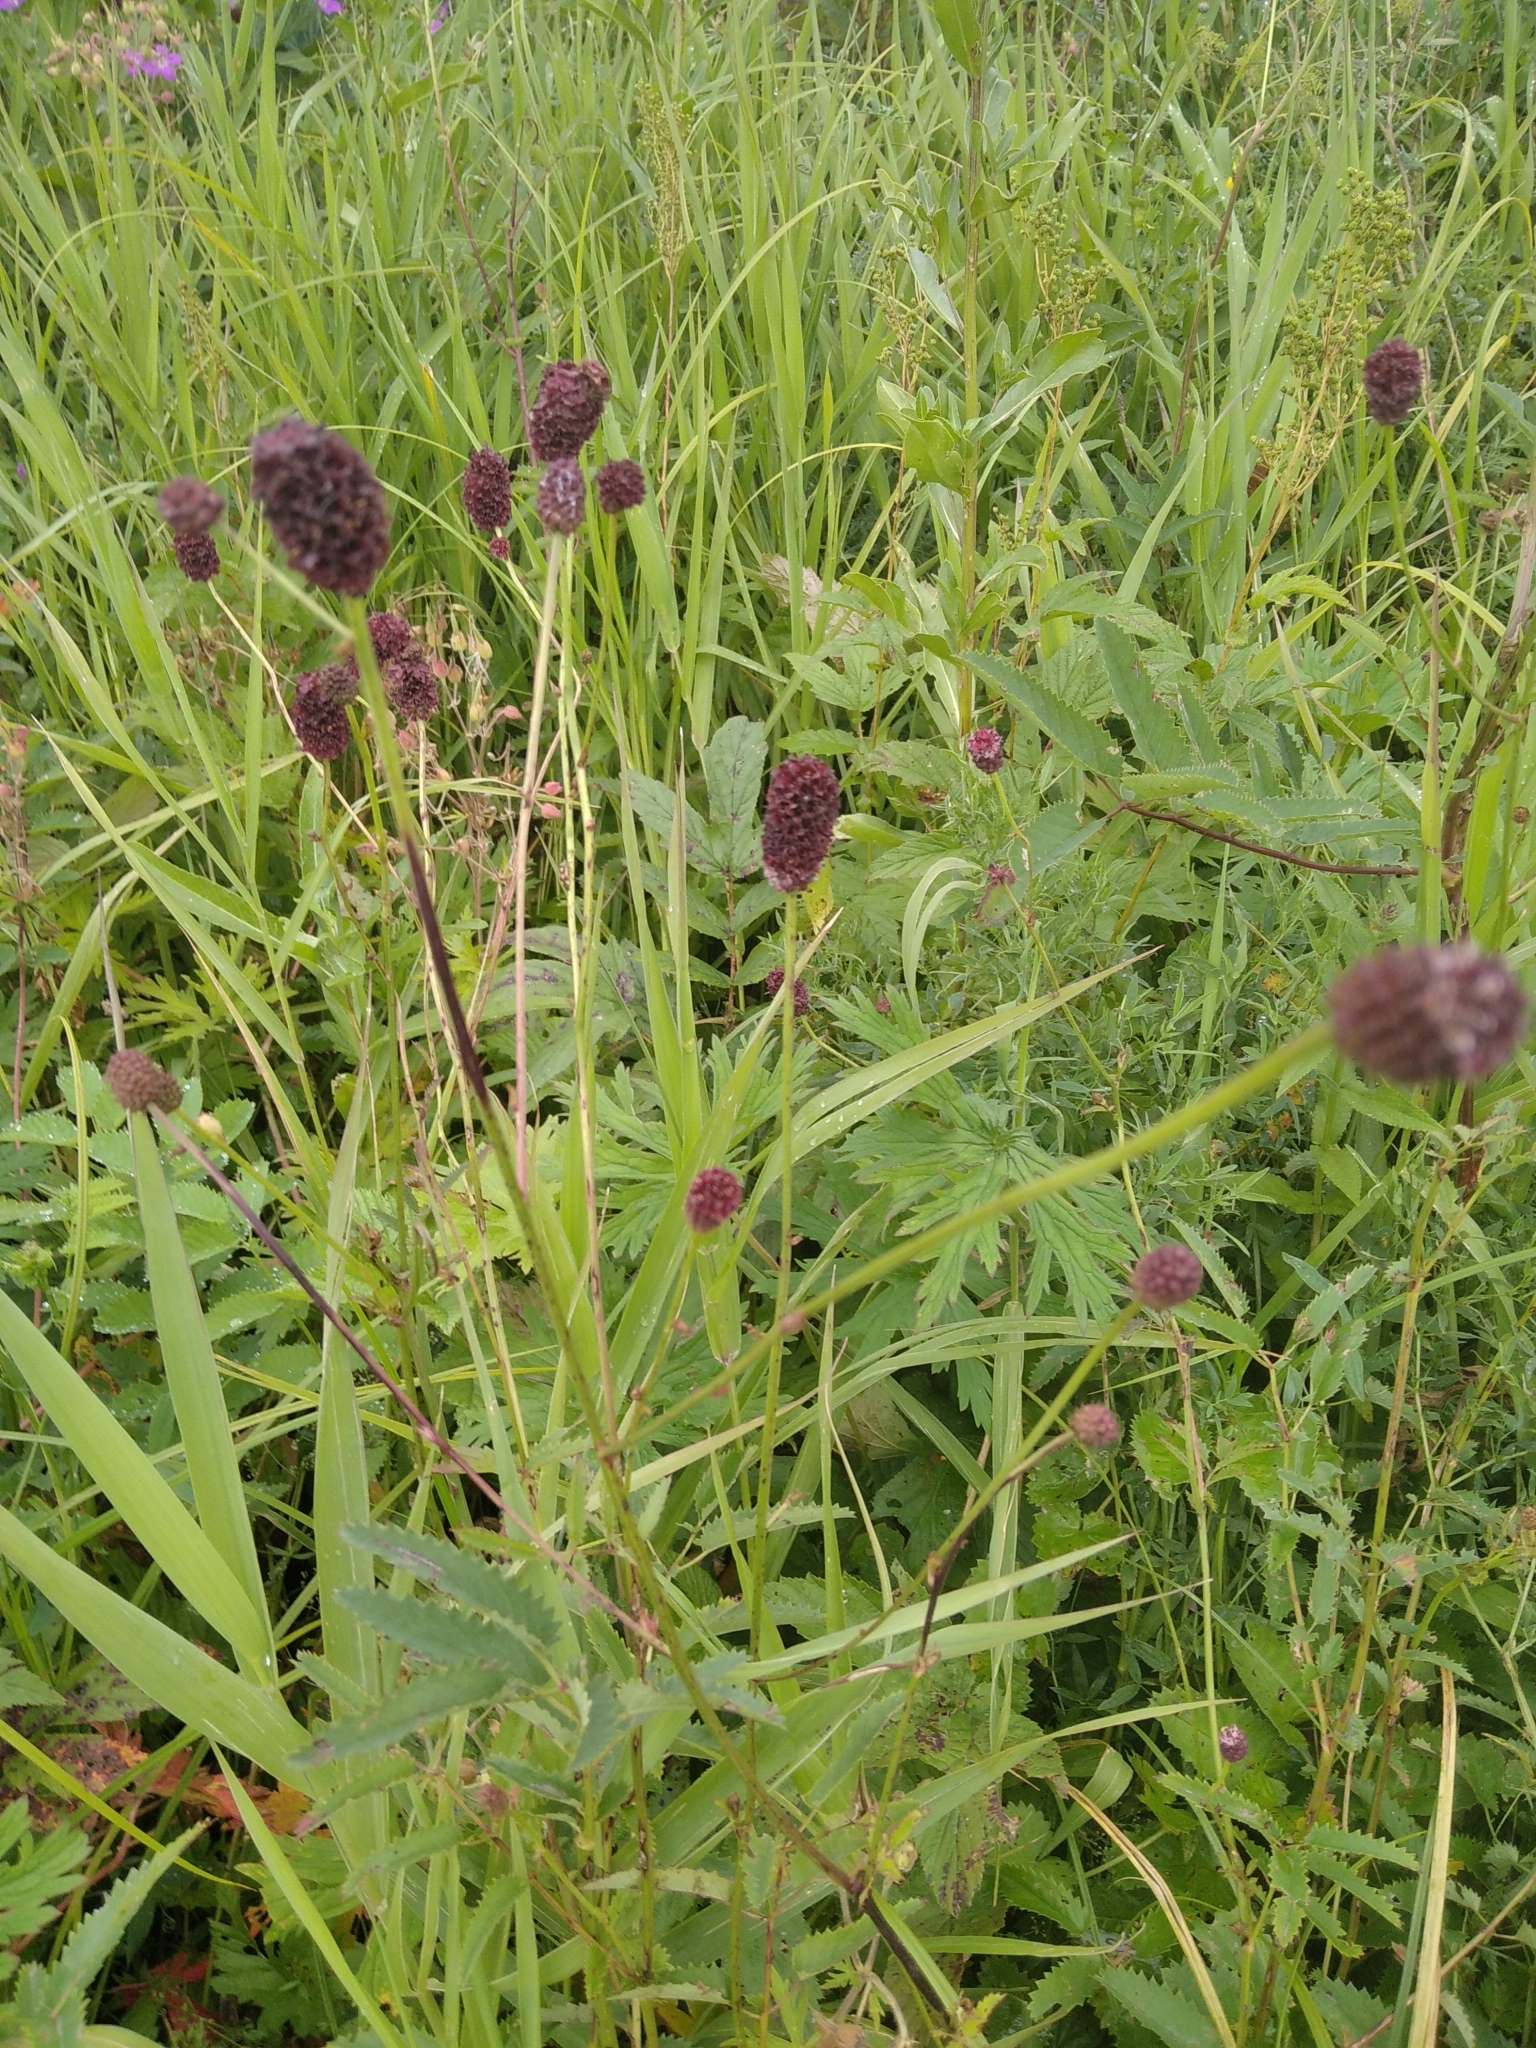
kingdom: Plantae
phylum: Tracheophyta
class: Magnoliopsida
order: Rosales
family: Rosaceae
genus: Sanguisorba
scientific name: Sanguisorba officinalis
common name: Great burnet
